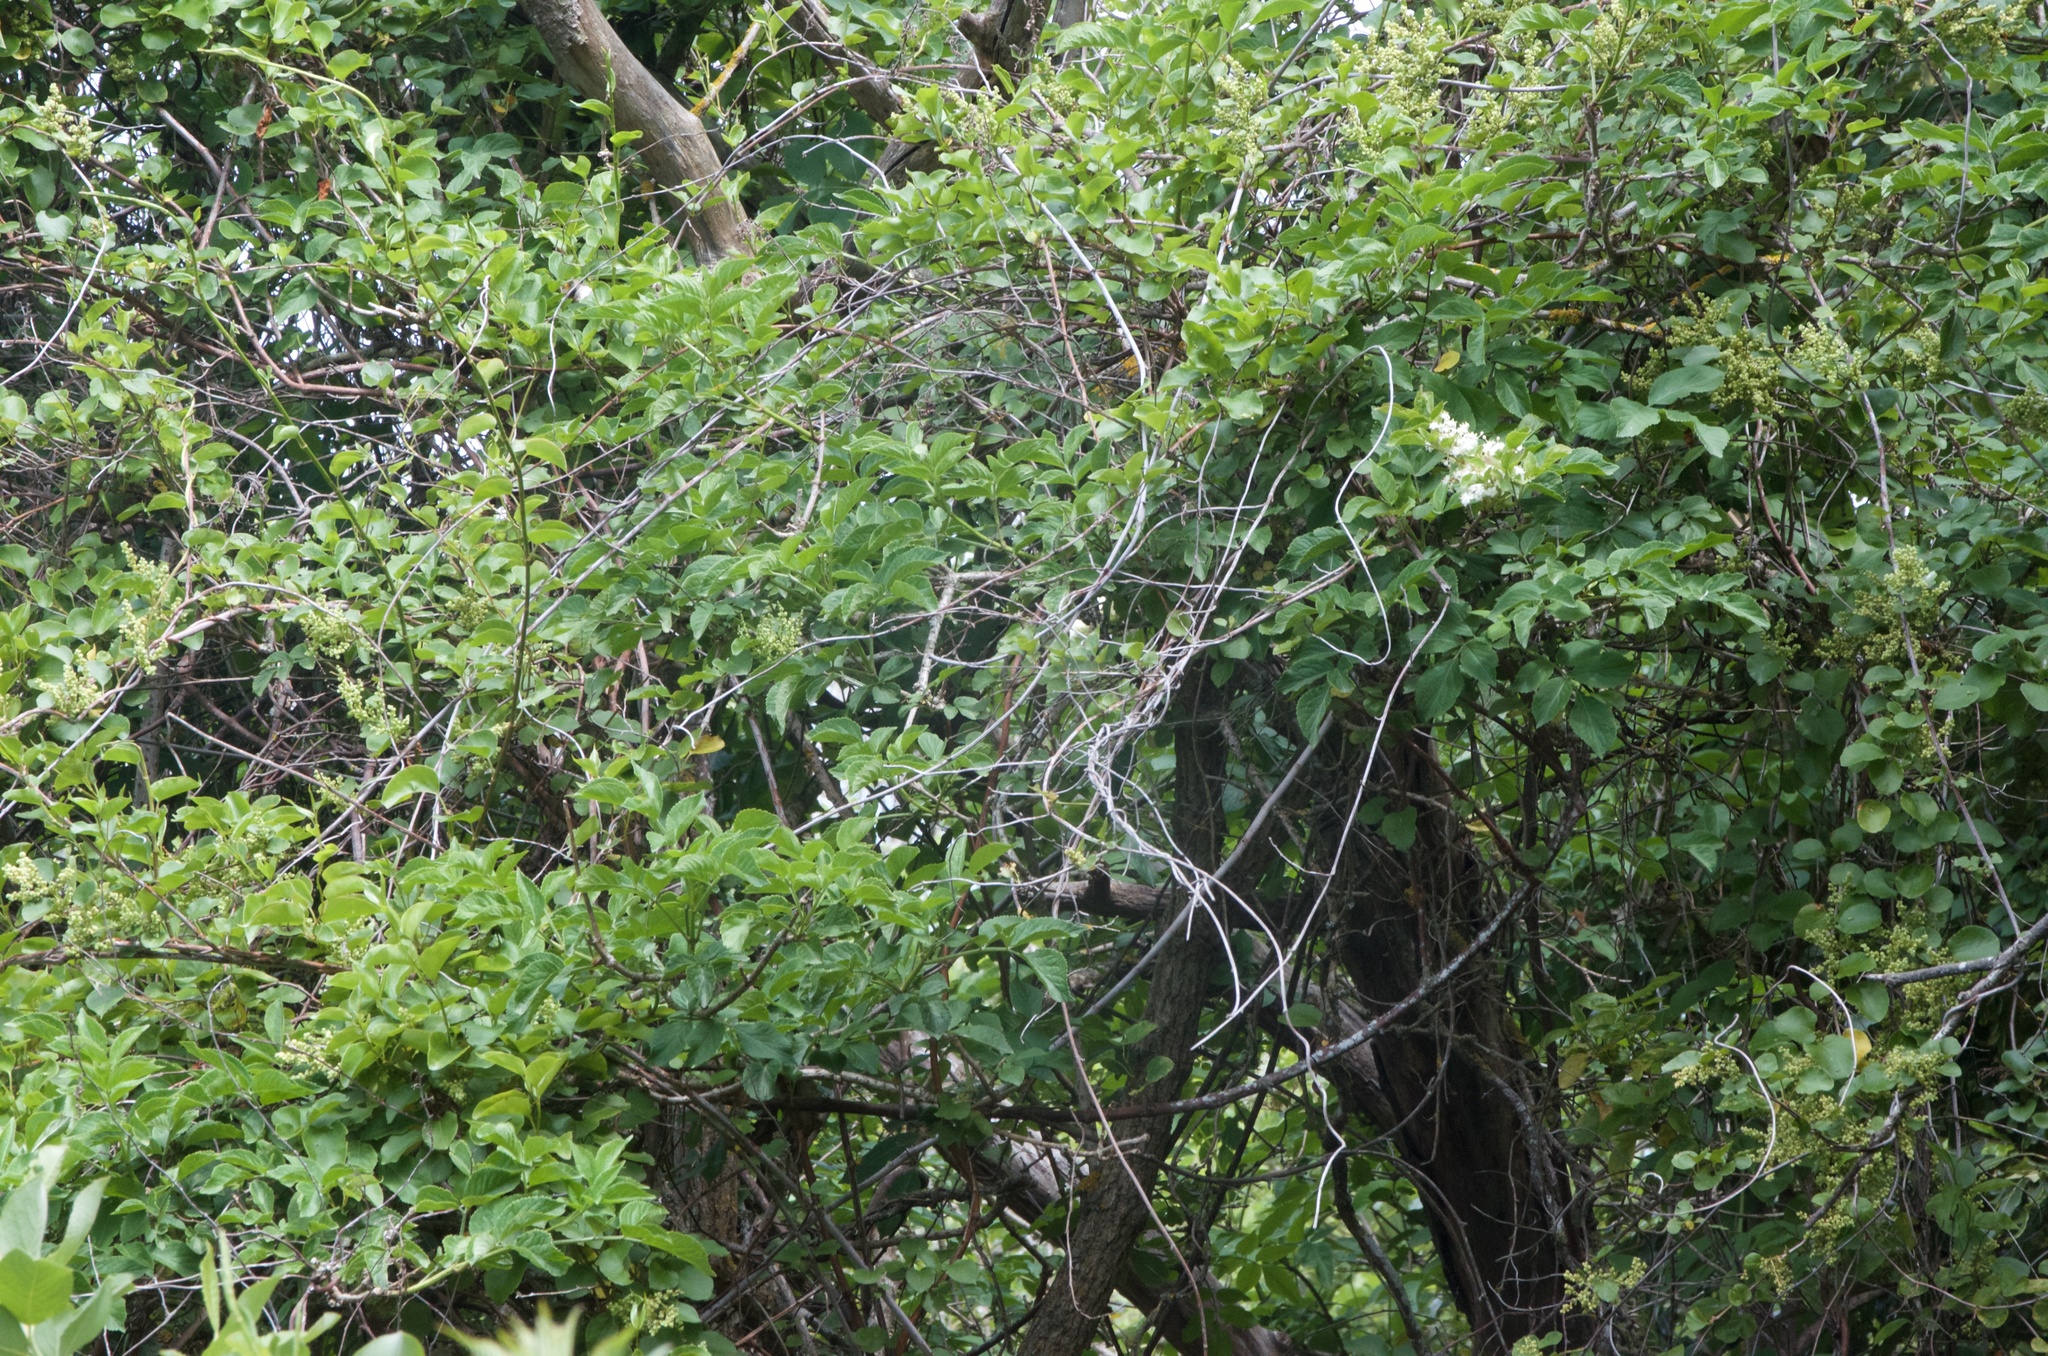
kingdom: Plantae
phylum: Tracheophyta
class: Magnoliopsida
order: Dipsacales
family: Viburnaceae
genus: Sambucus
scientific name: Sambucus nigra
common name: Elder
